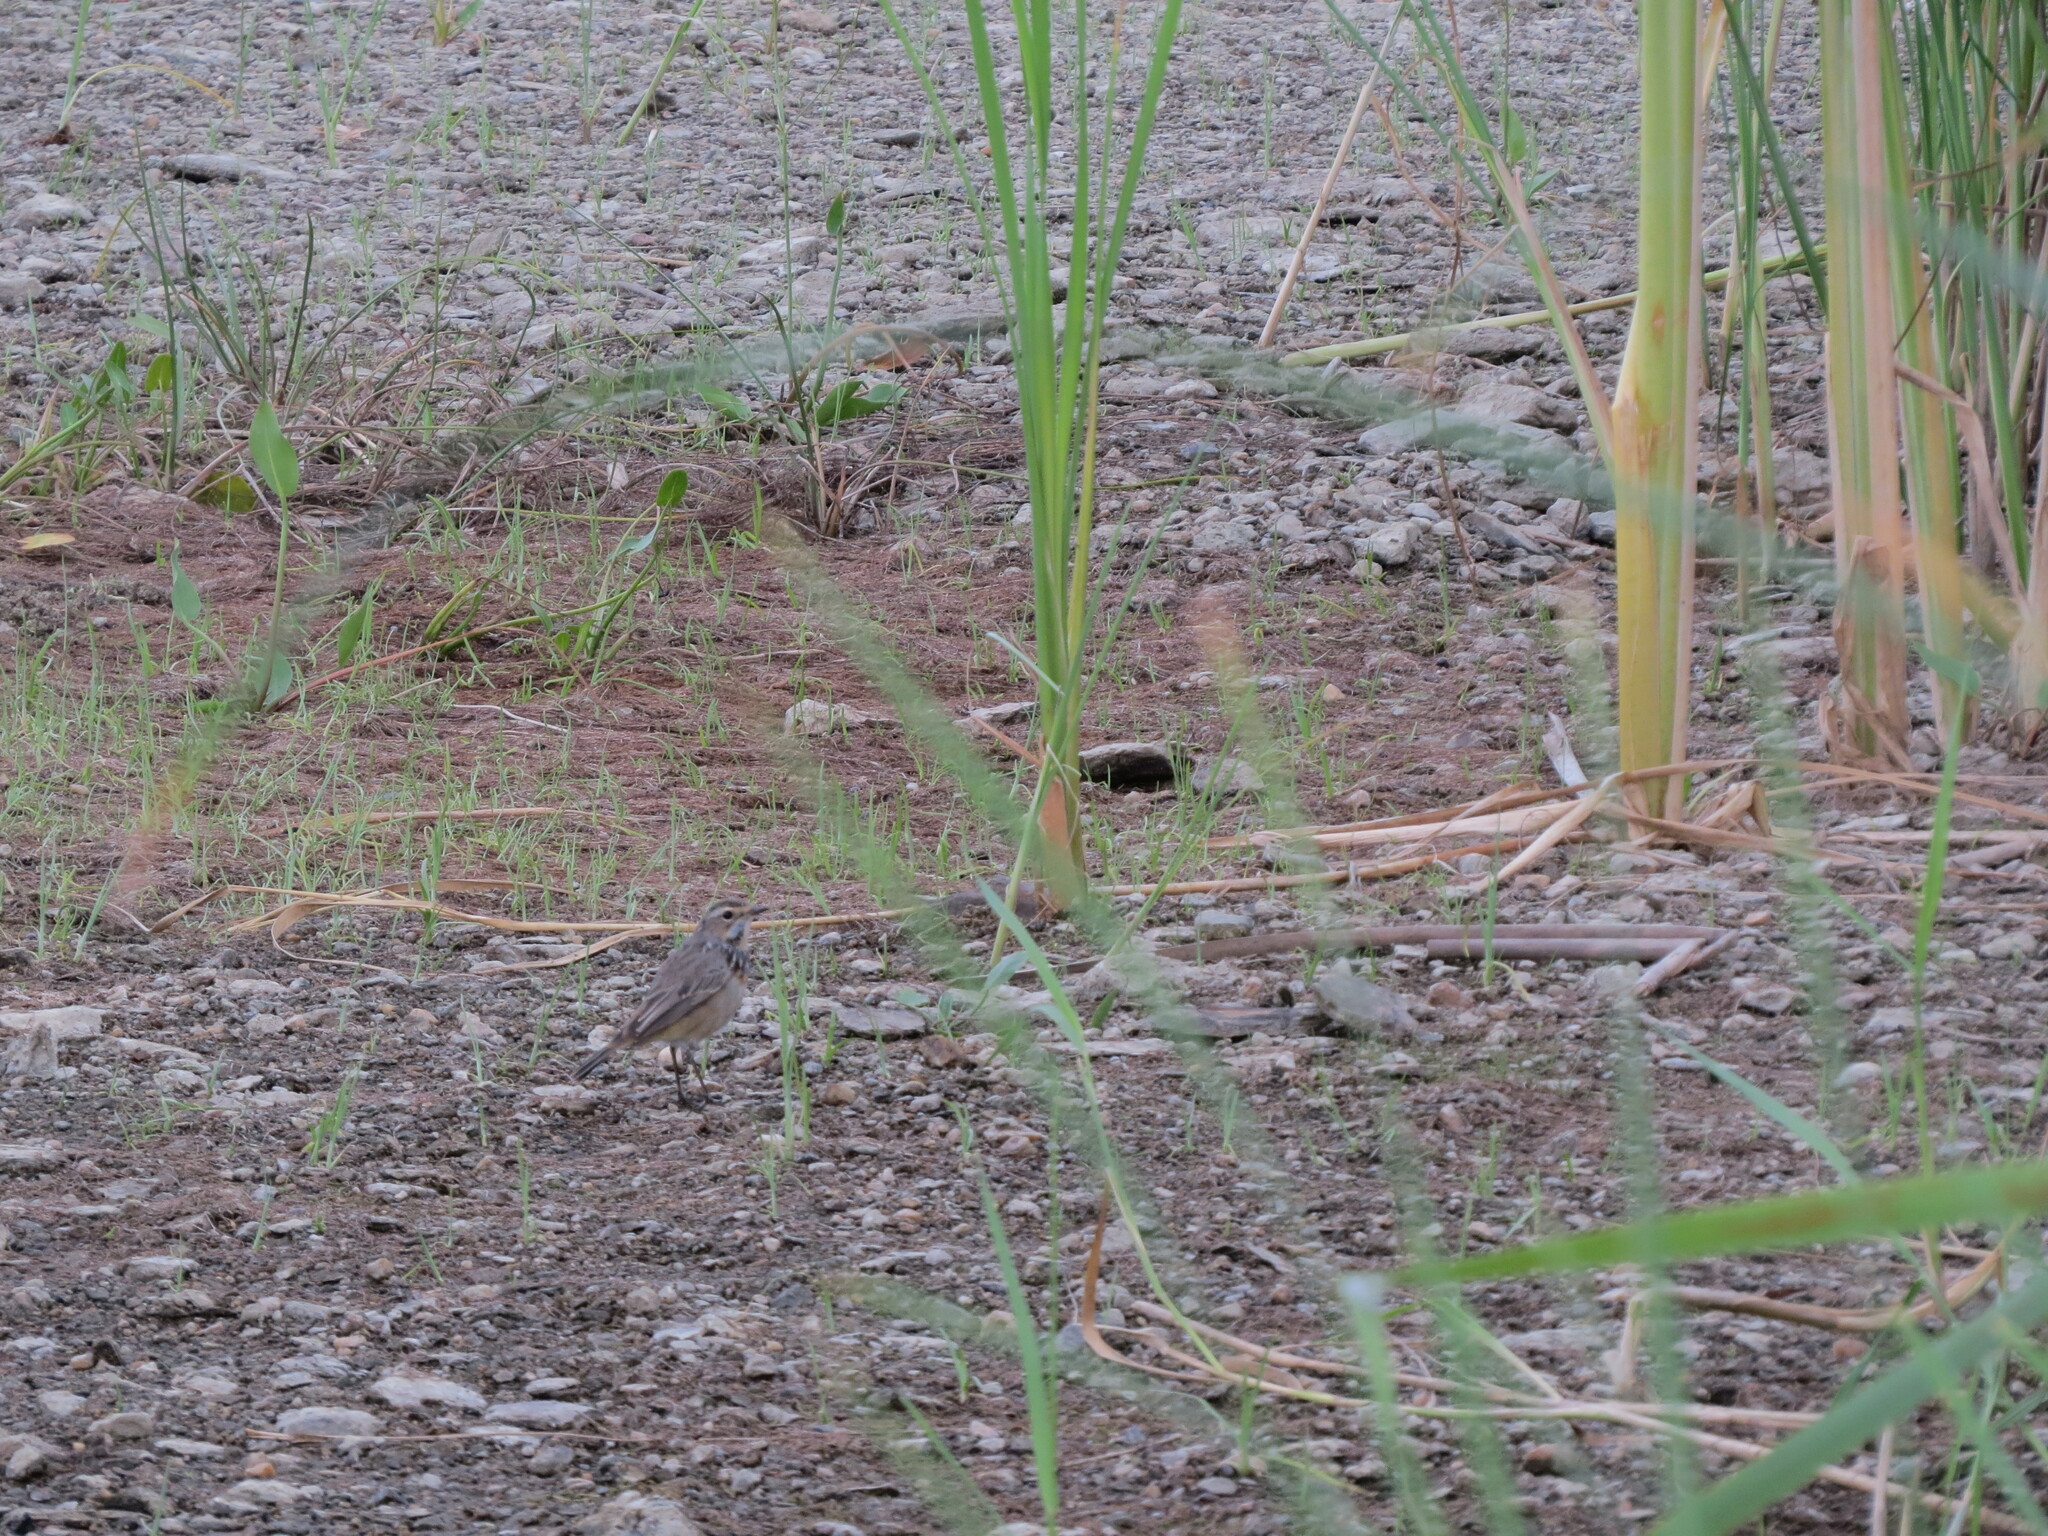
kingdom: Animalia
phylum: Chordata
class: Aves
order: Passeriformes
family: Muscicapidae
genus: Luscinia
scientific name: Luscinia svecica
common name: Bluethroat
